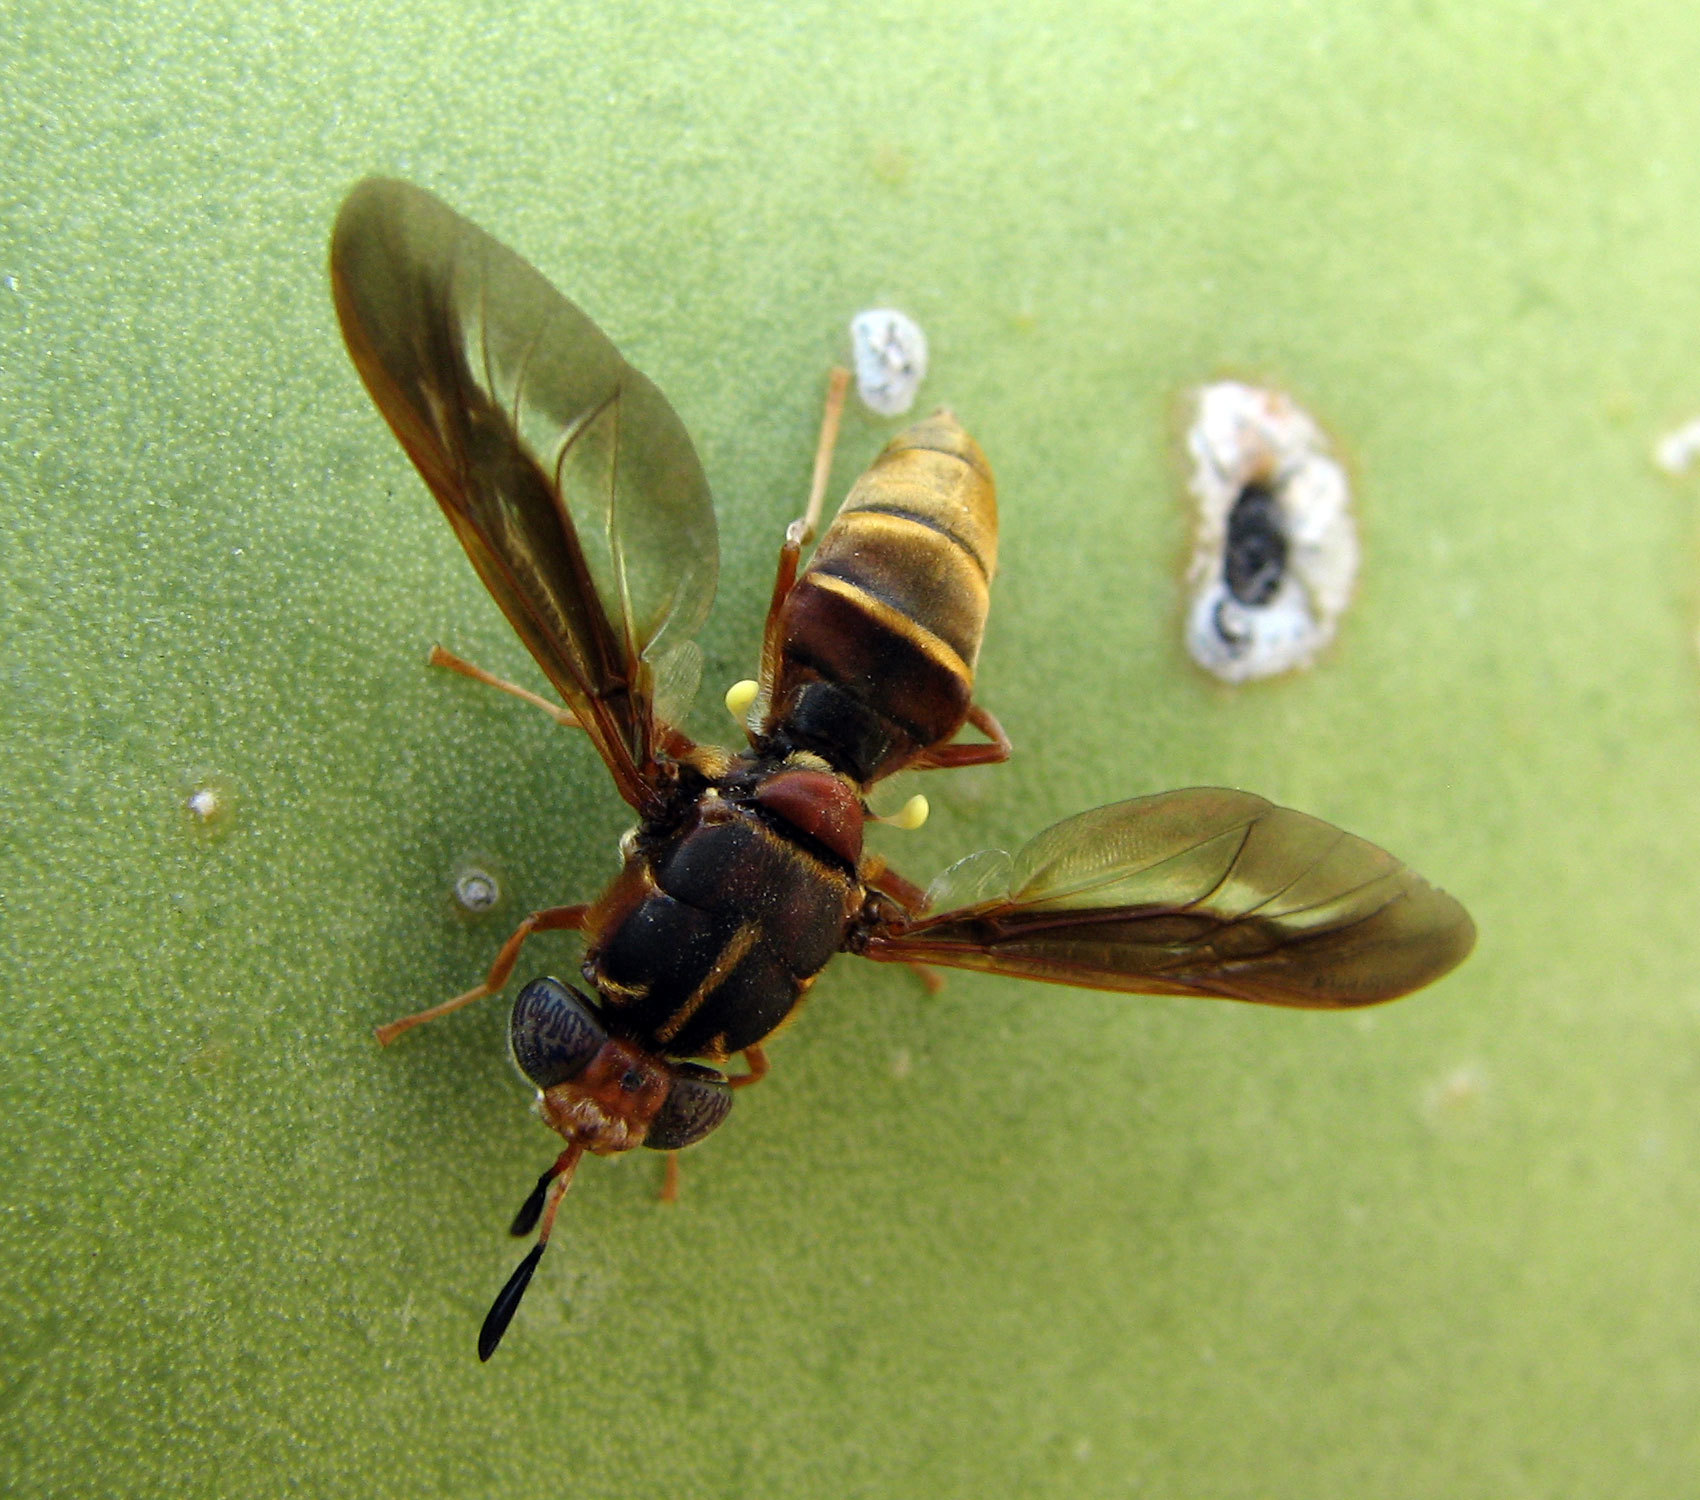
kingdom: Animalia
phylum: Arthropoda
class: Insecta
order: Diptera
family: Stratiomyidae
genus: Hermetia
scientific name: Hermetia comstocki
